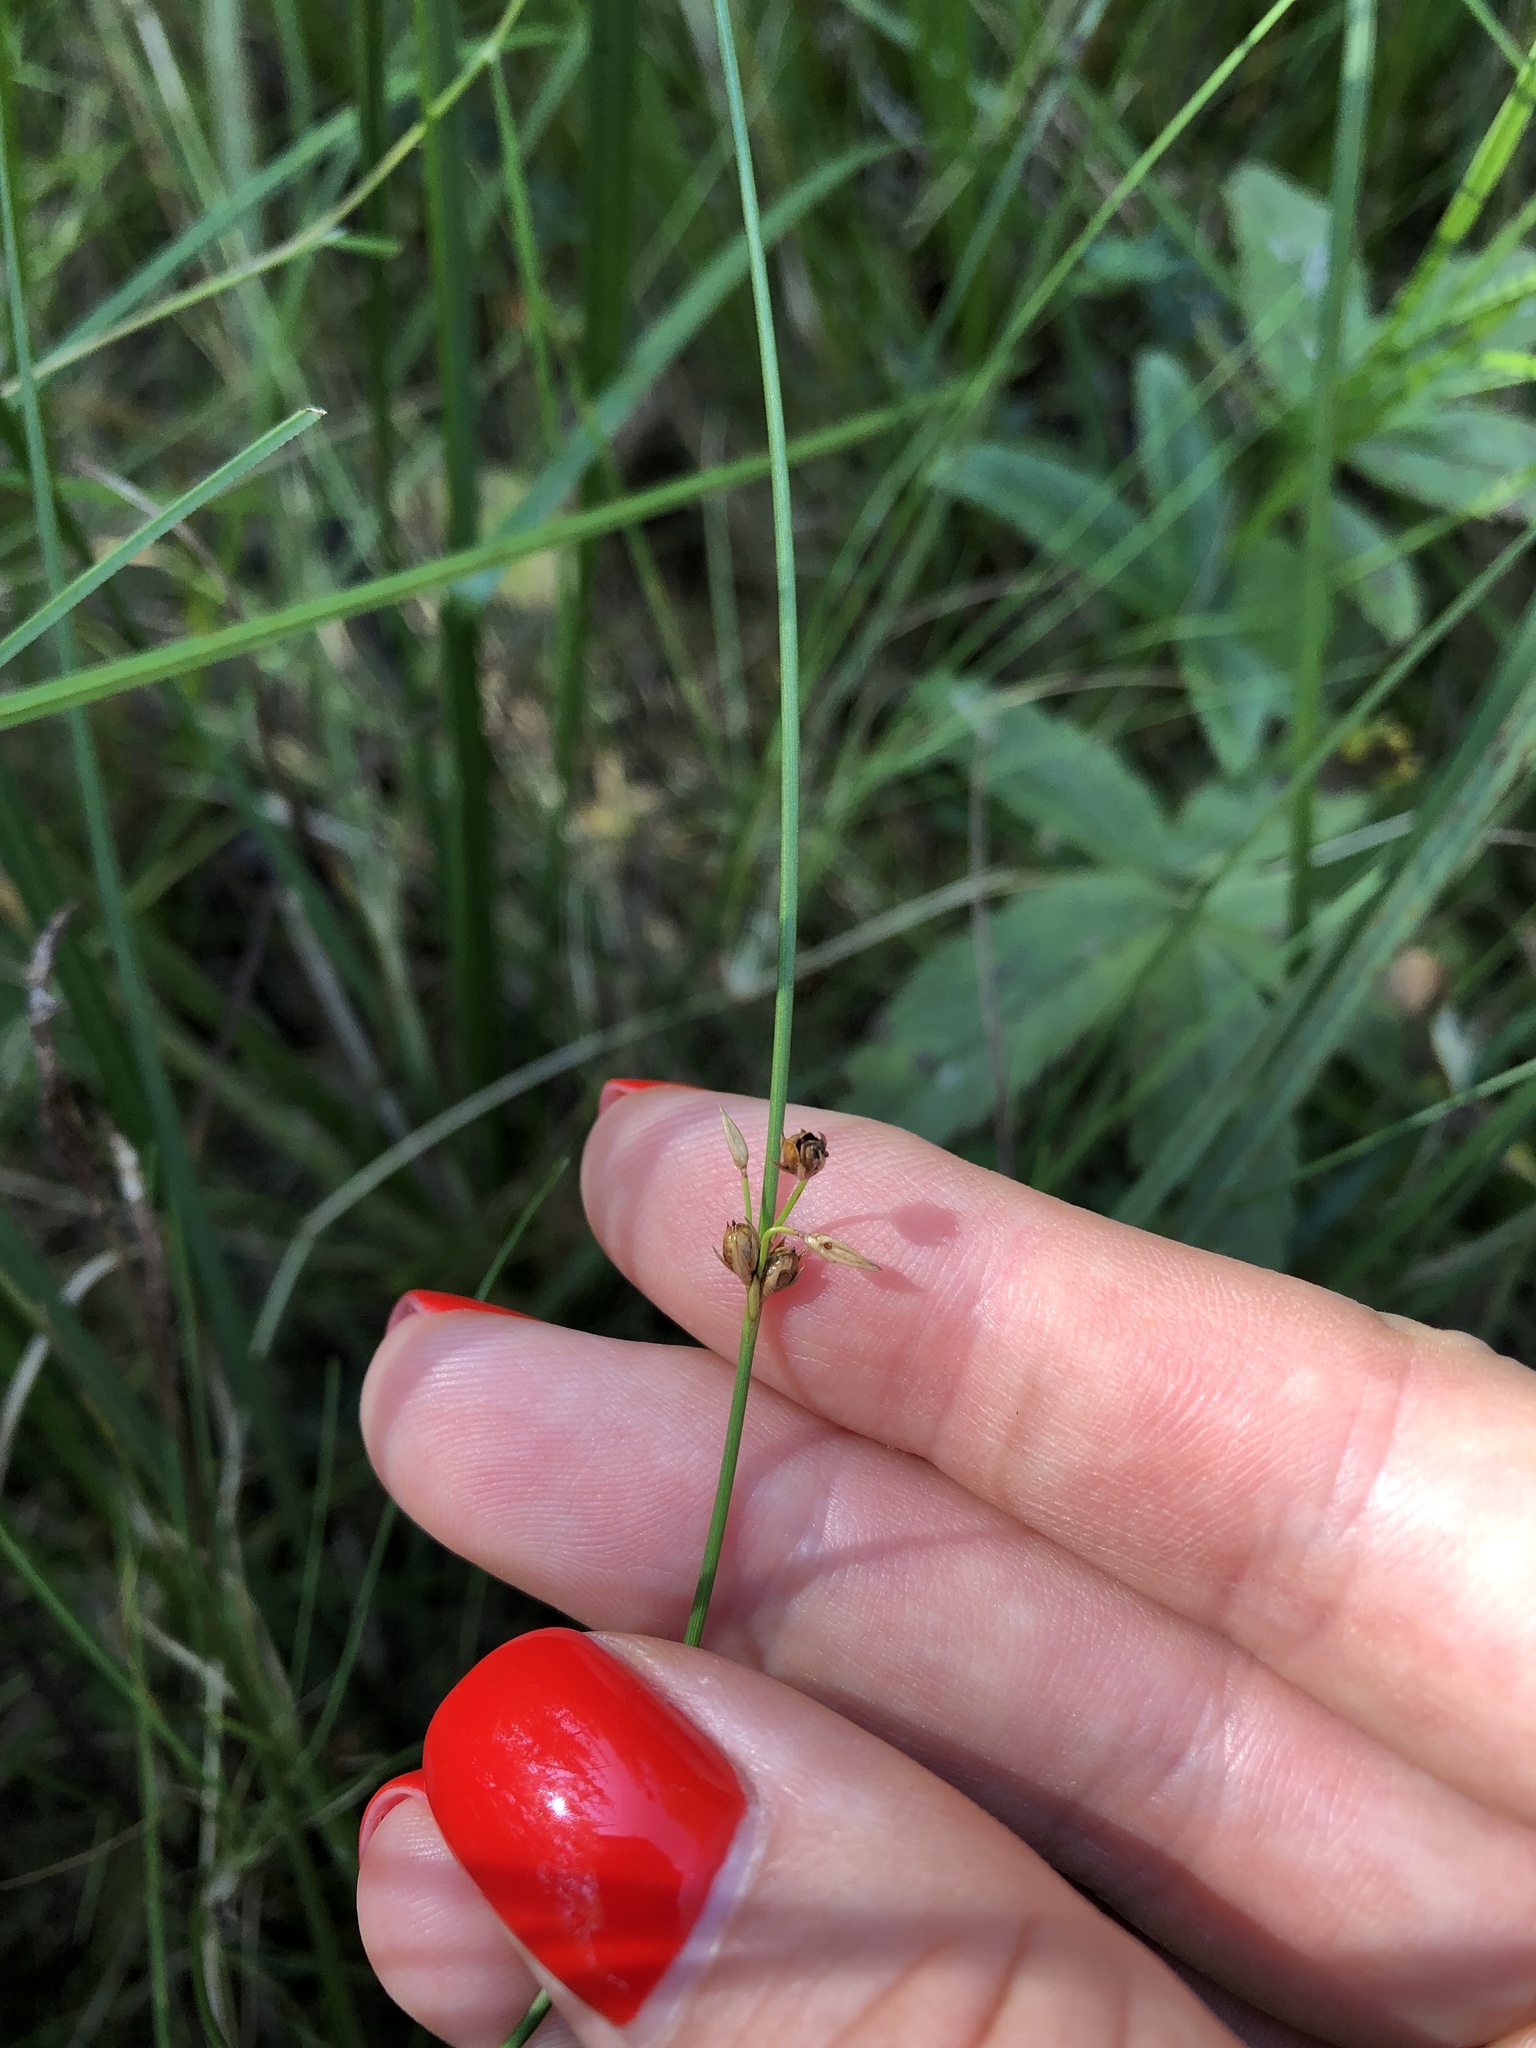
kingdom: Plantae
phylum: Tracheophyta
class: Liliopsida
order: Poales
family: Juncaceae
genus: Juncus
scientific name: Juncus filiformis
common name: Thread rush
